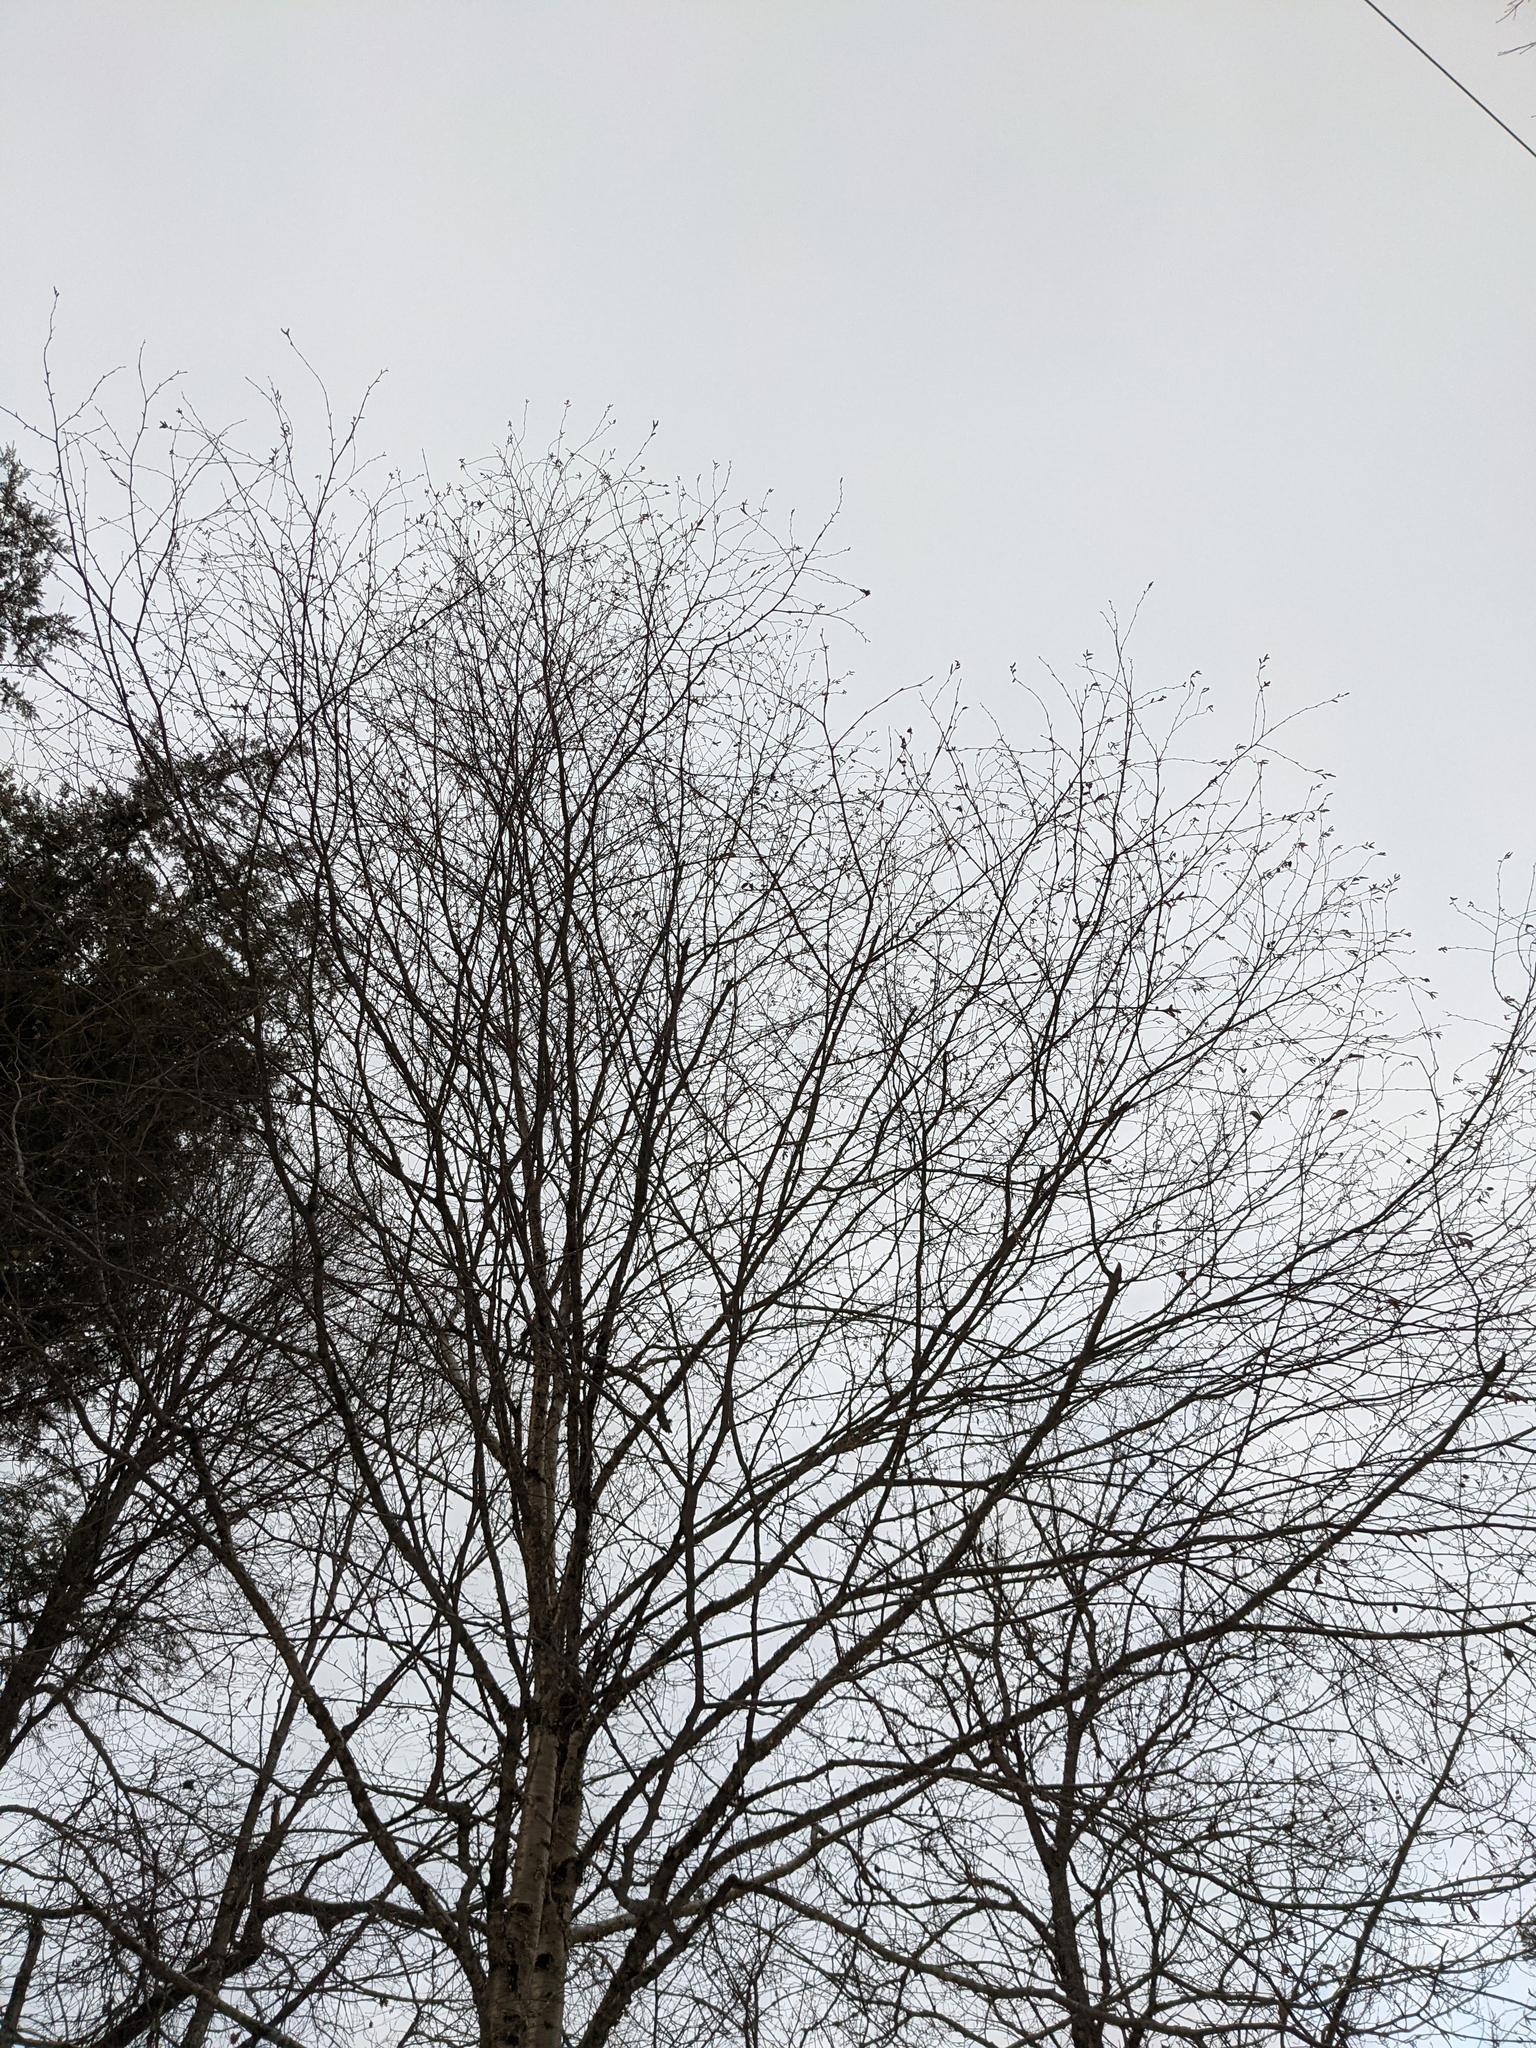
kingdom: Plantae
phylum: Tracheophyta
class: Magnoliopsida
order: Fagales
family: Betulaceae
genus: Betula
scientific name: Betula alleghaniensis
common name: Yellow birch
